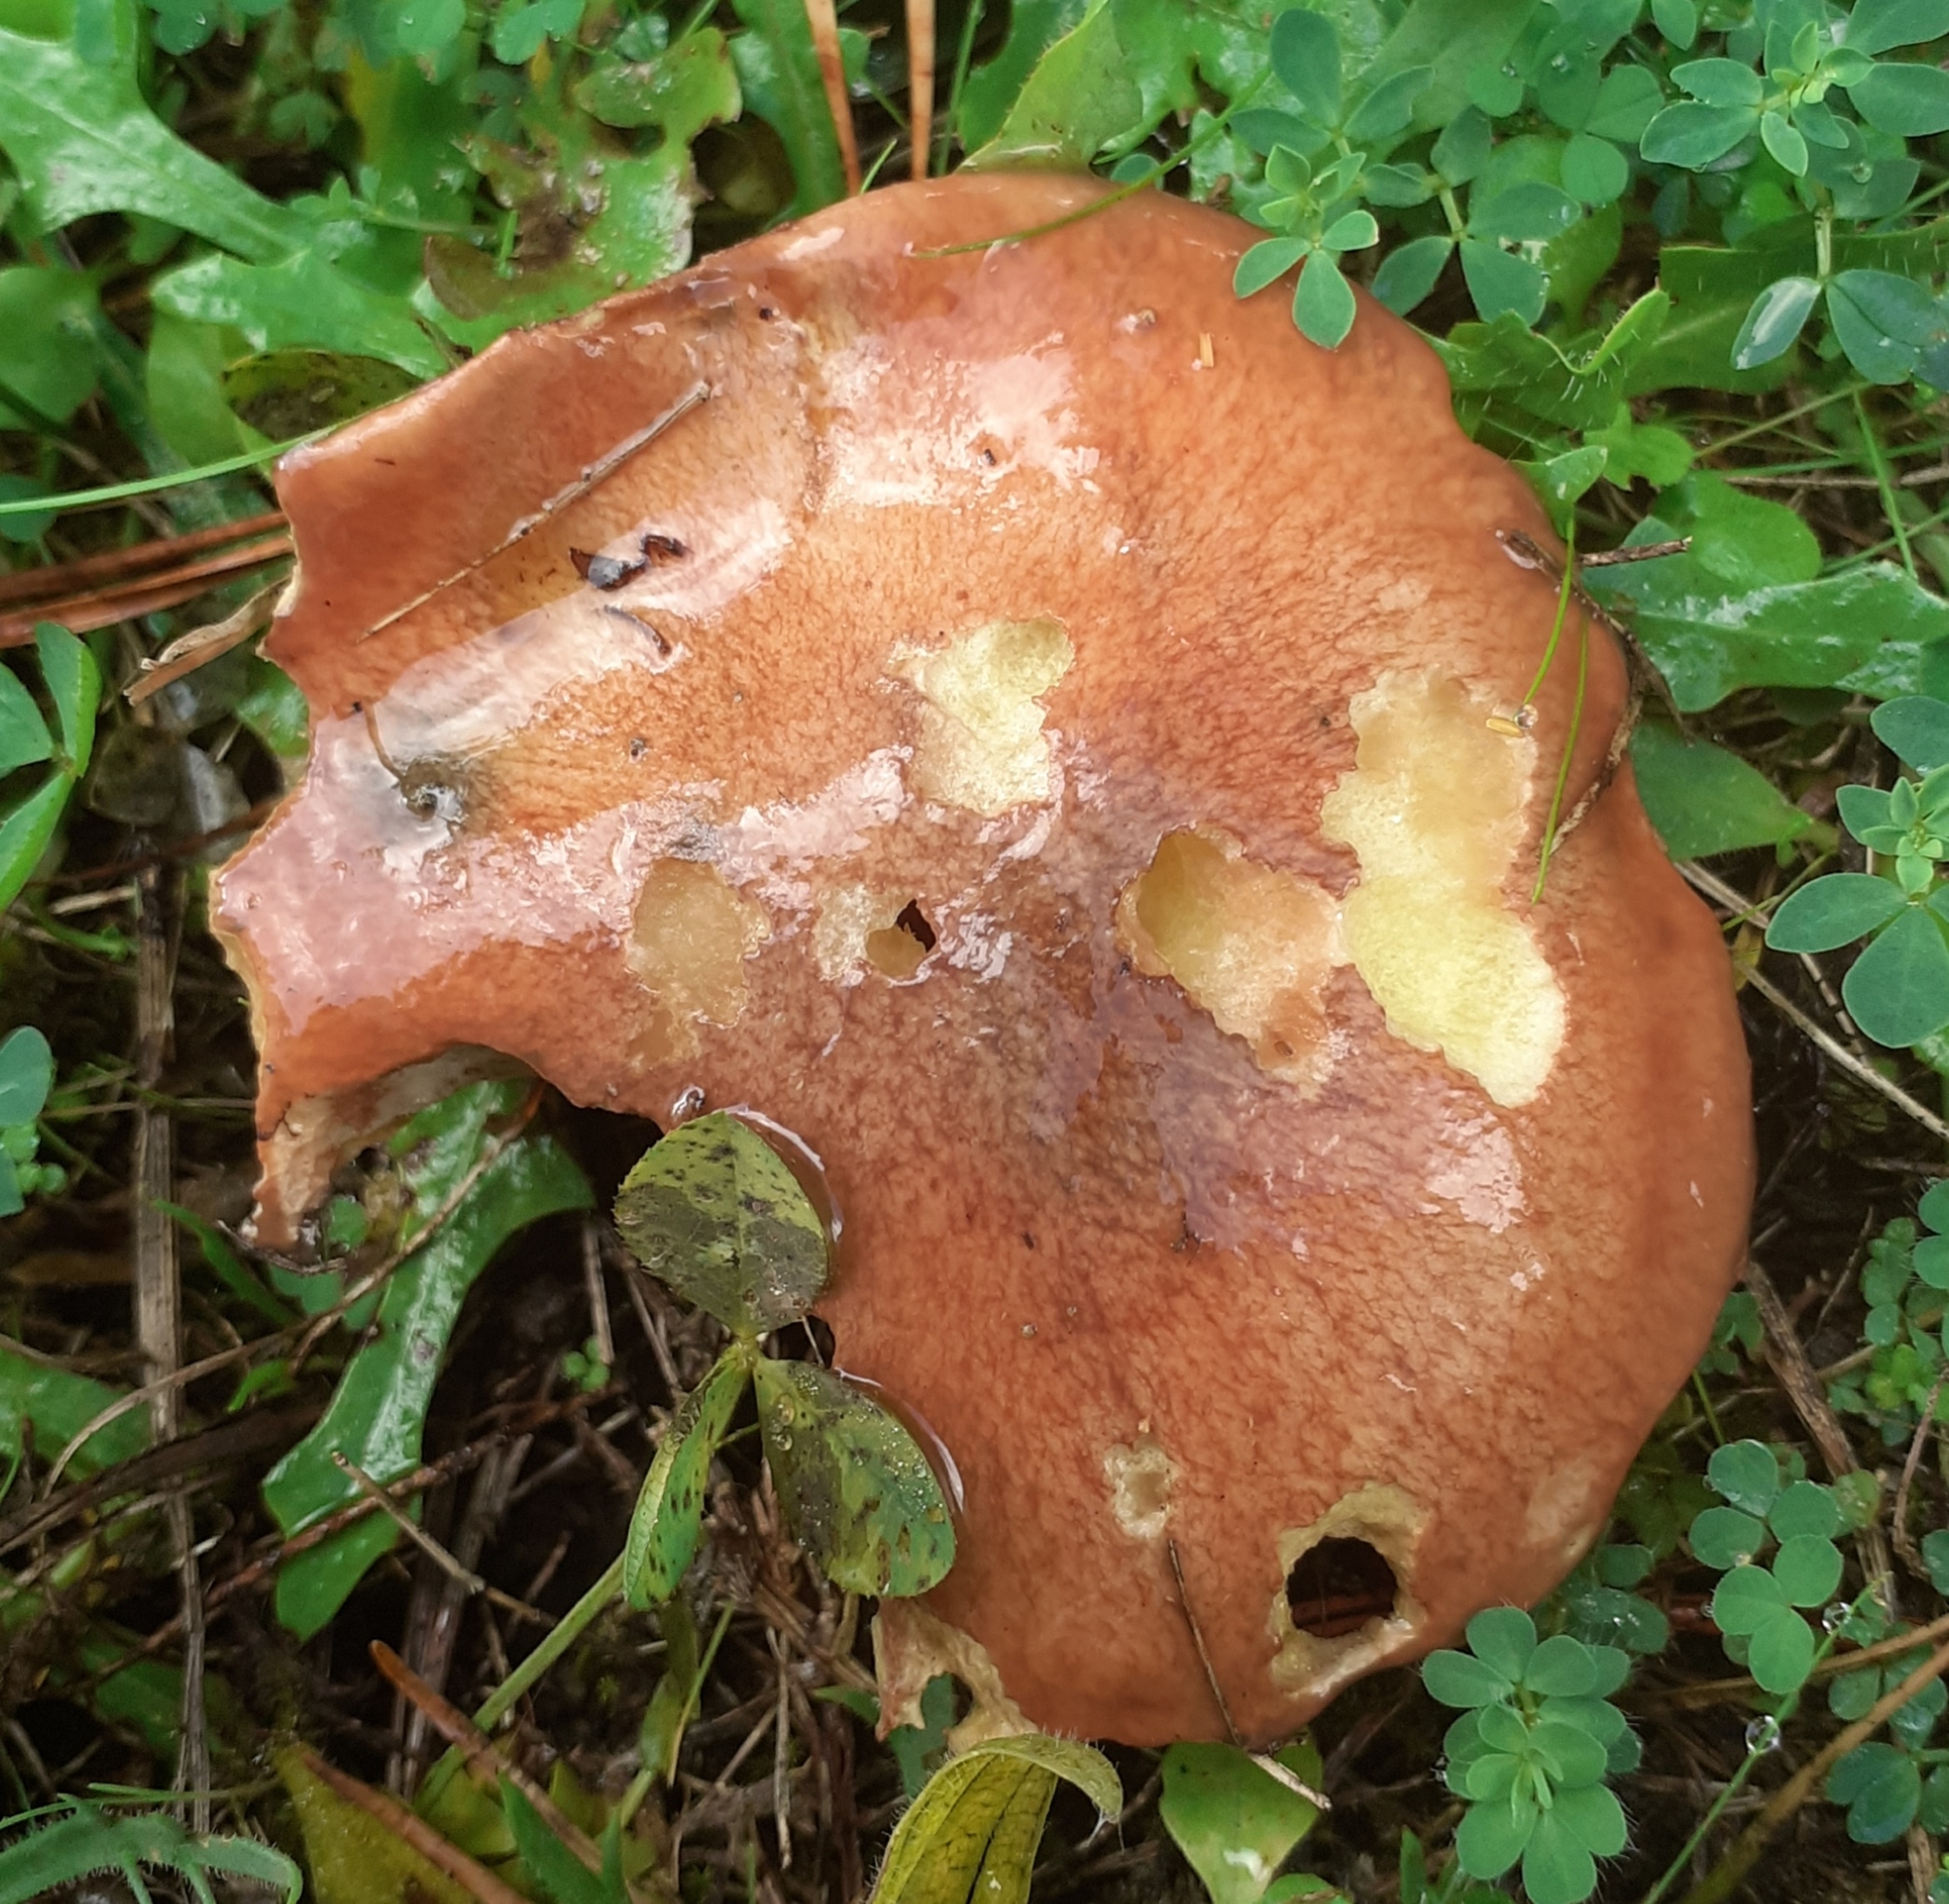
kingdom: Fungi
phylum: Basidiomycota
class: Agaricomycetes
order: Boletales
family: Suillaceae
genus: Suillus
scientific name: Suillus luteus
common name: Slippery jack
